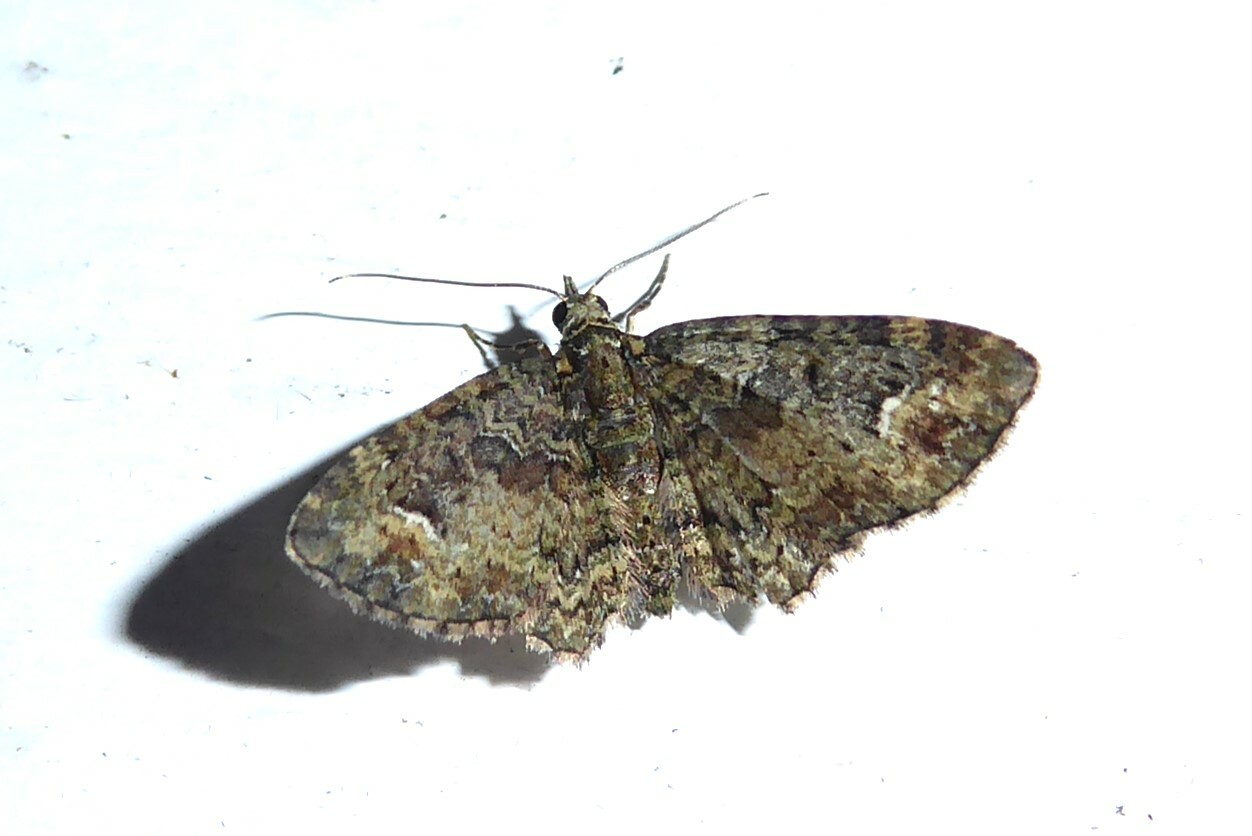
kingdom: Animalia
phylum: Arthropoda
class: Insecta
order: Lepidoptera
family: Geometridae
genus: Pasiphilodes
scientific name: Pasiphilodes testulata
